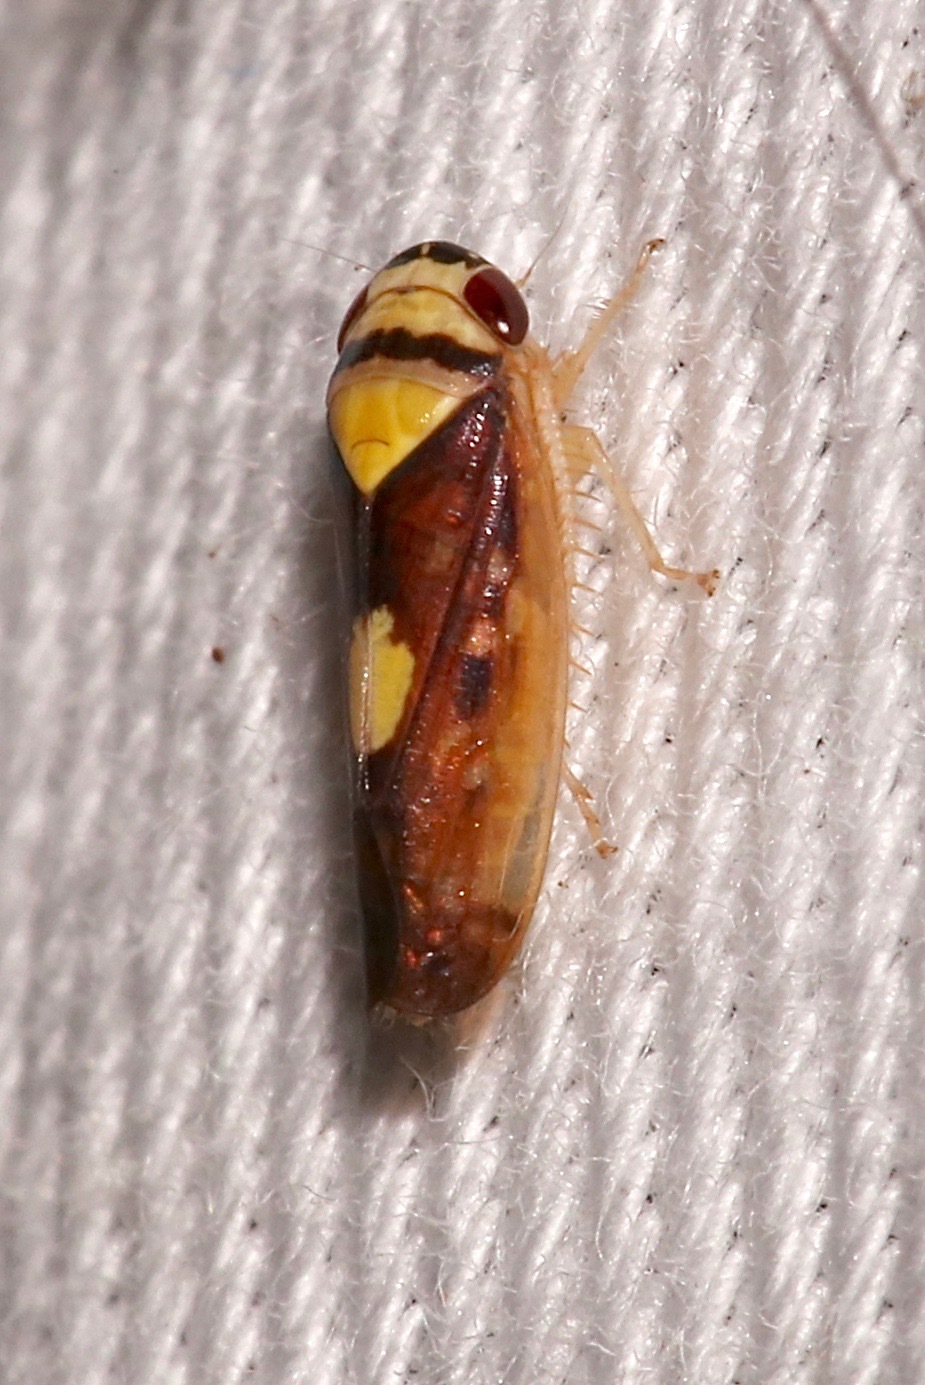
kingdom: Animalia
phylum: Arthropoda
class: Insecta
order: Hemiptera
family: Cicadellidae
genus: Eutettix
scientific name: Eutettix pictus
